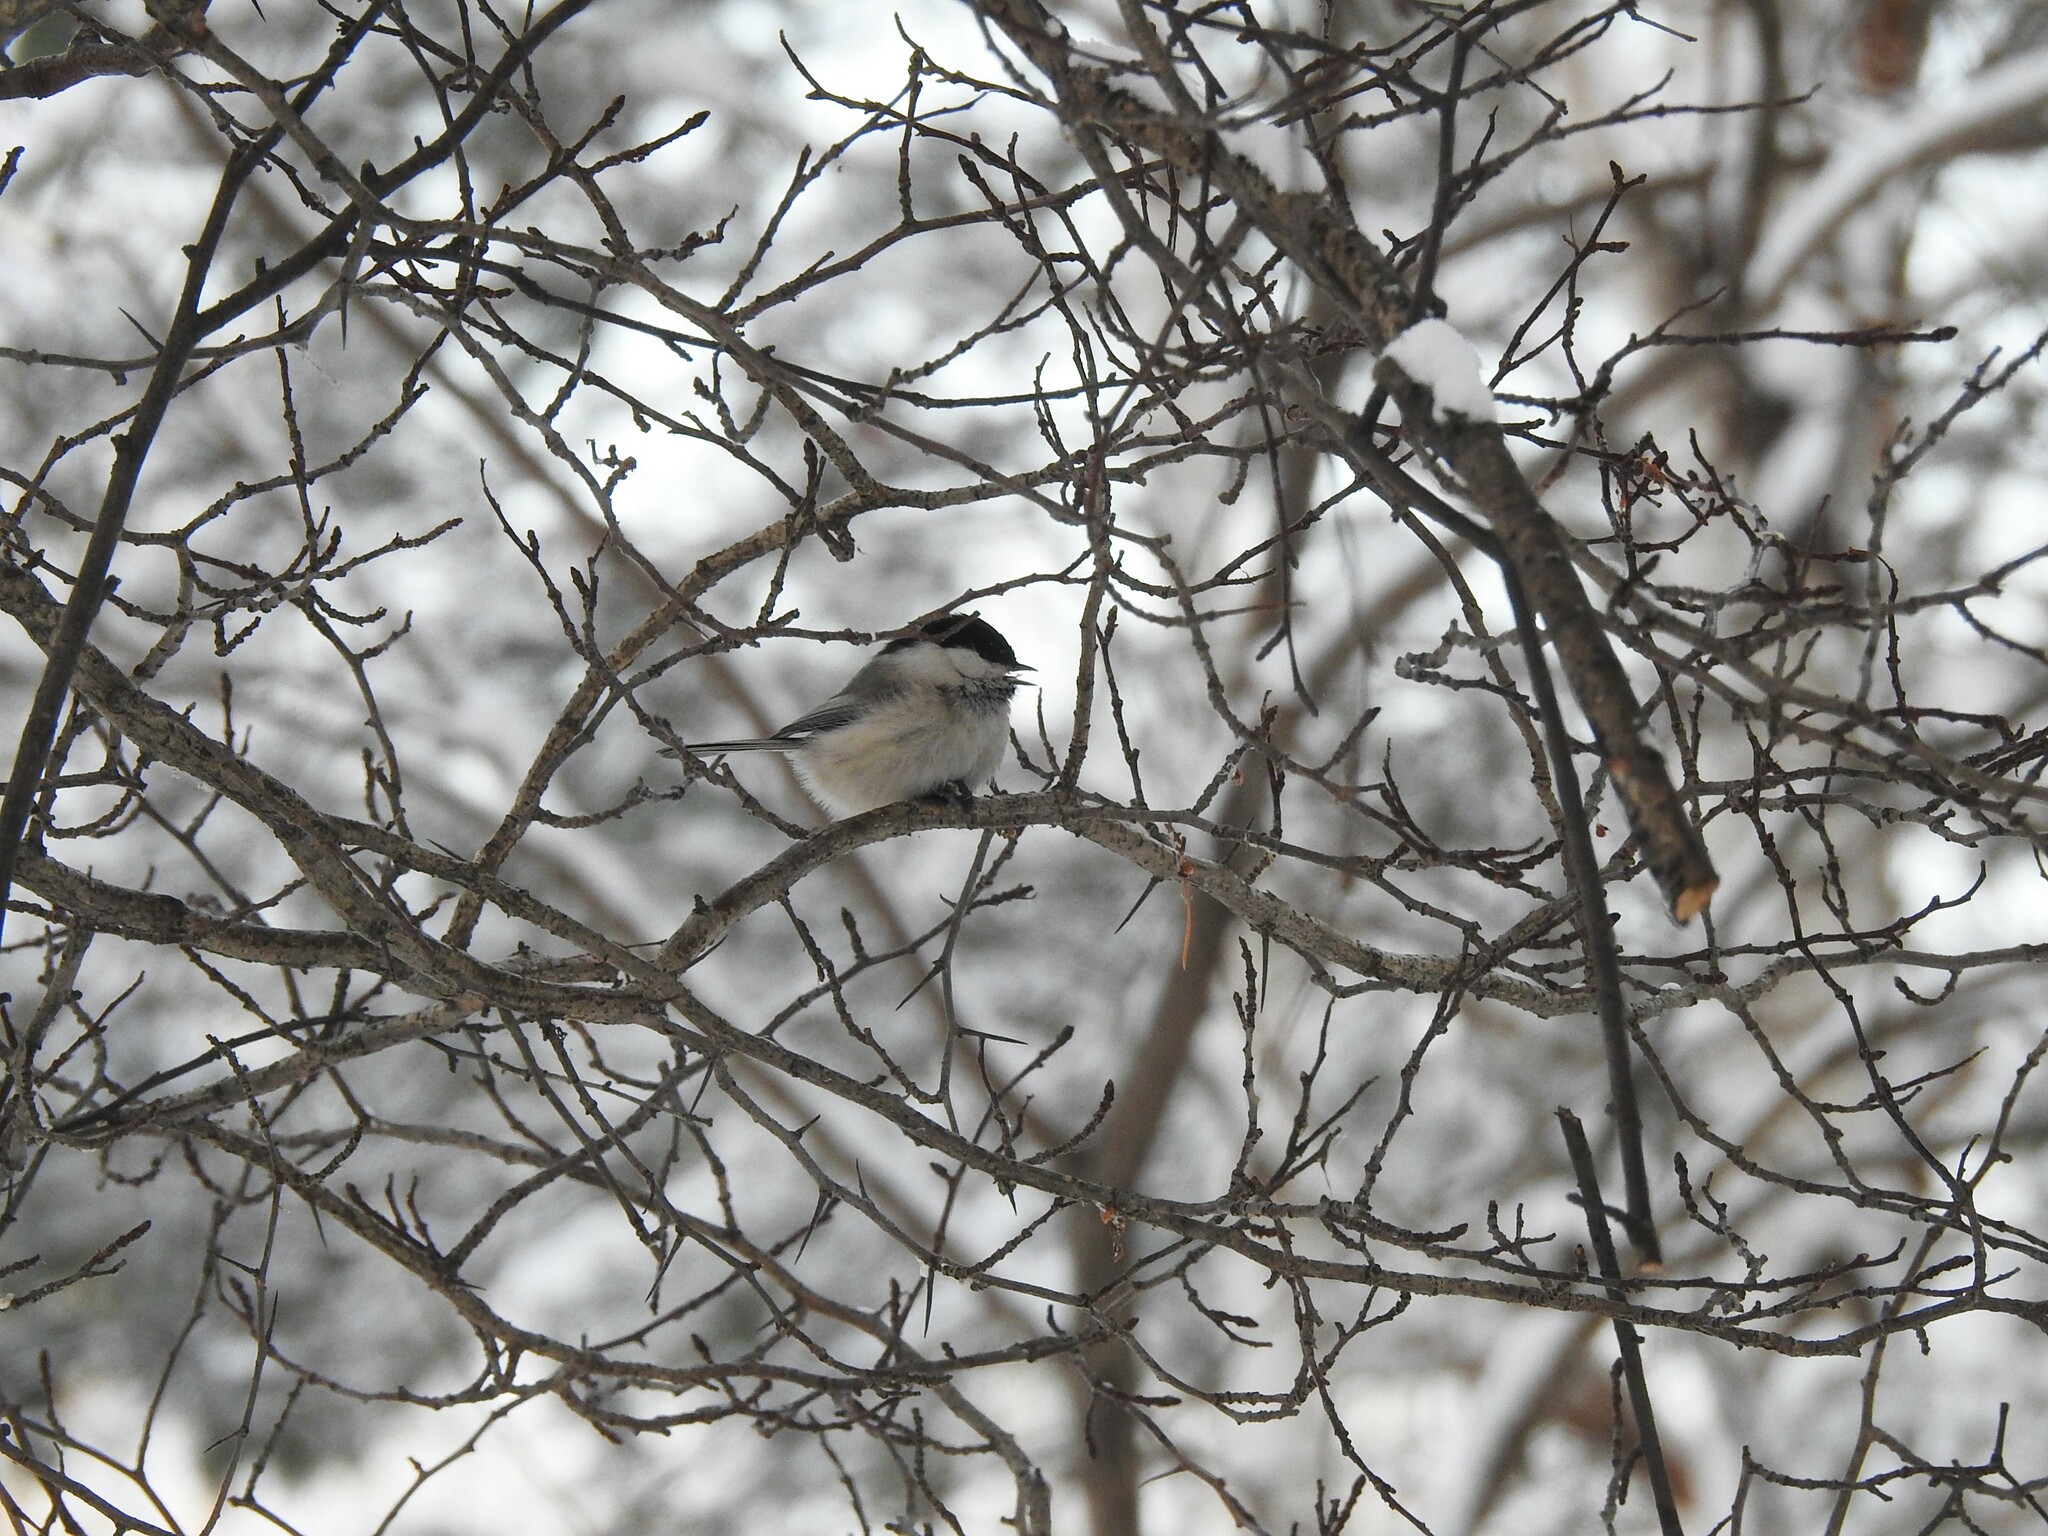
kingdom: Animalia
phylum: Chordata
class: Aves
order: Passeriformes
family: Paridae
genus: Poecile
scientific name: Poecile montanus
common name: Willow tit
